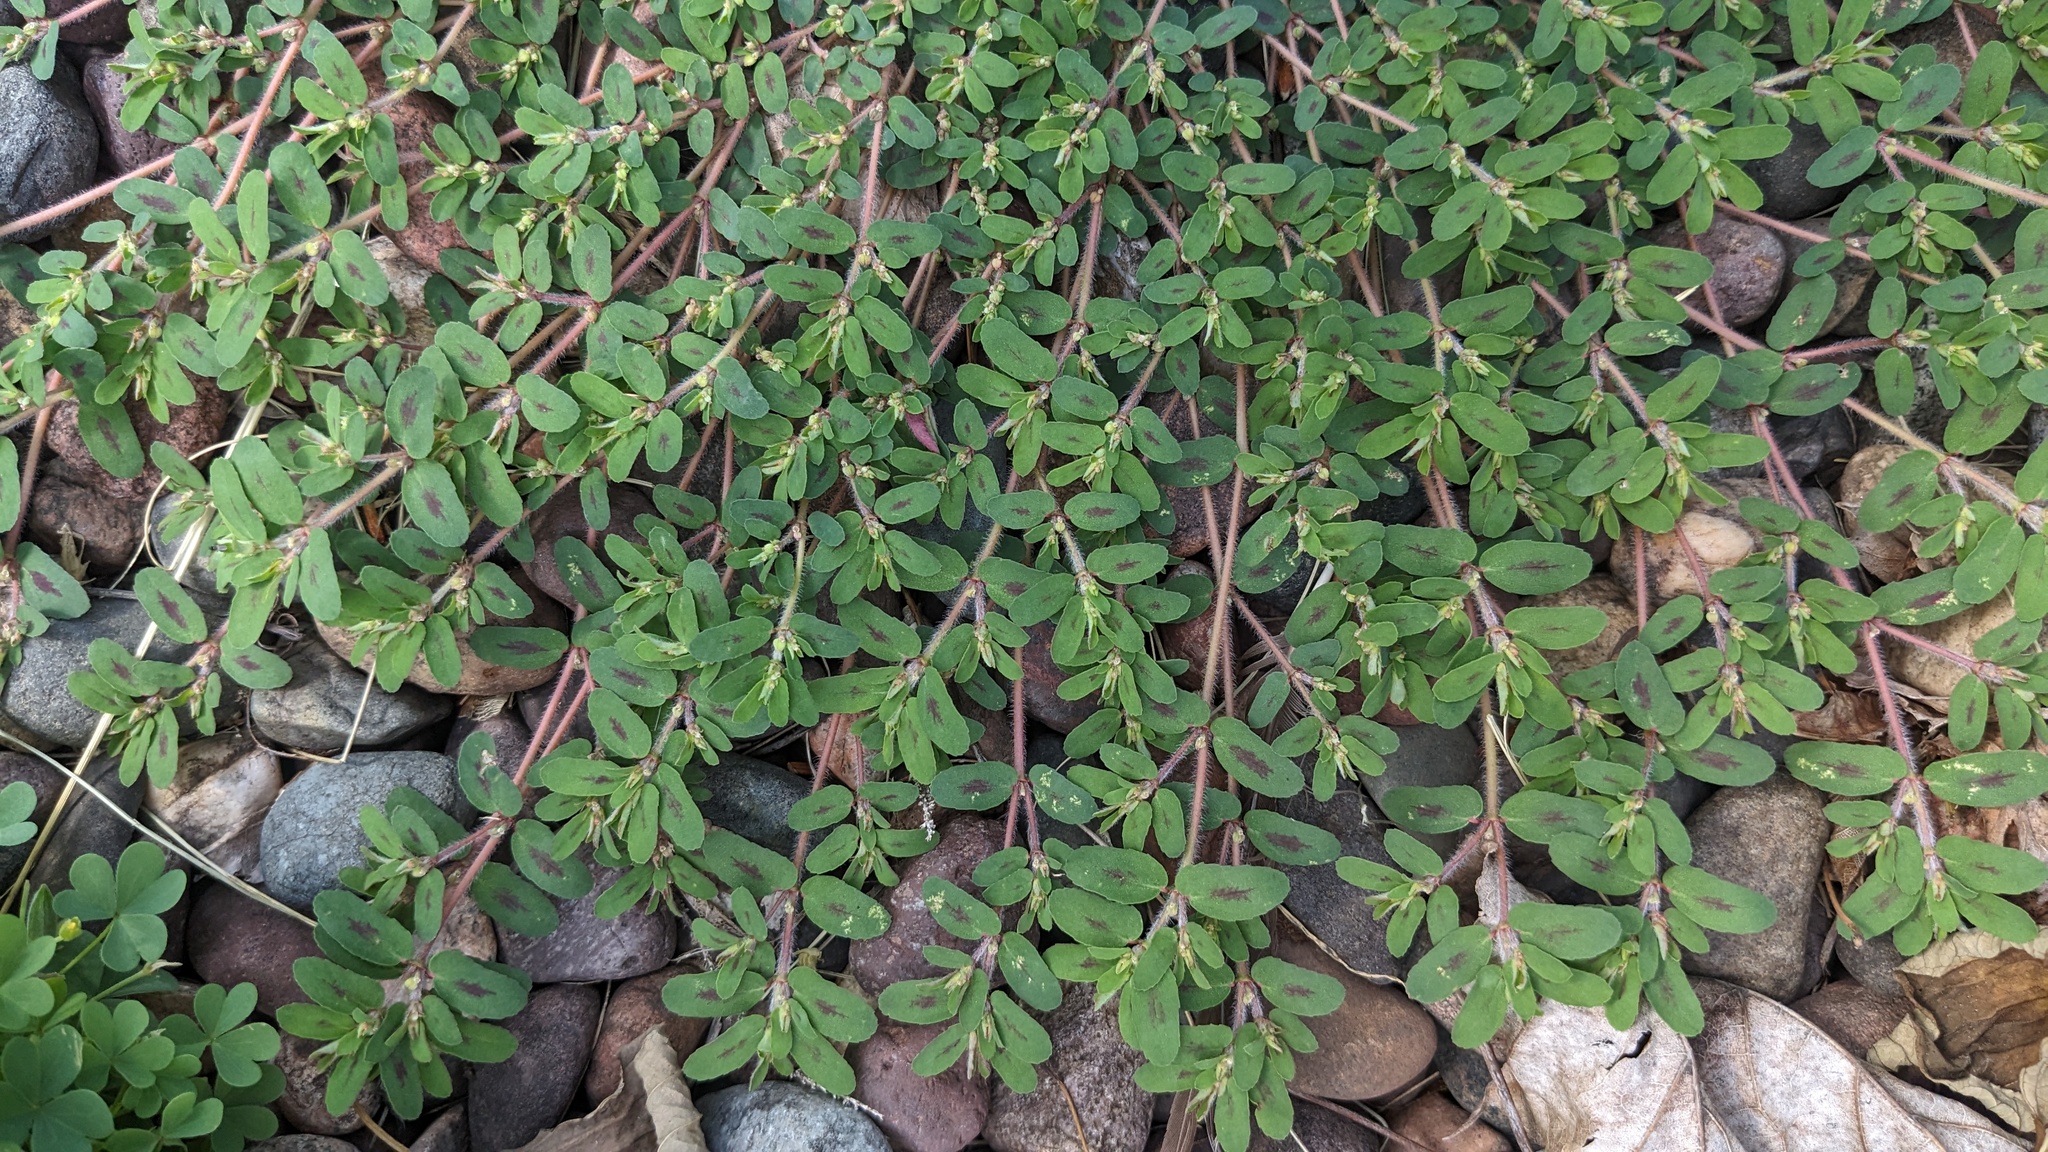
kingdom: Plantae
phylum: Tracheophyta
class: Magnoliopsida
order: Malpighiales
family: Euphorbiaceae
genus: Euphorbia
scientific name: Euphorbia maculata
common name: Spotted spurge
